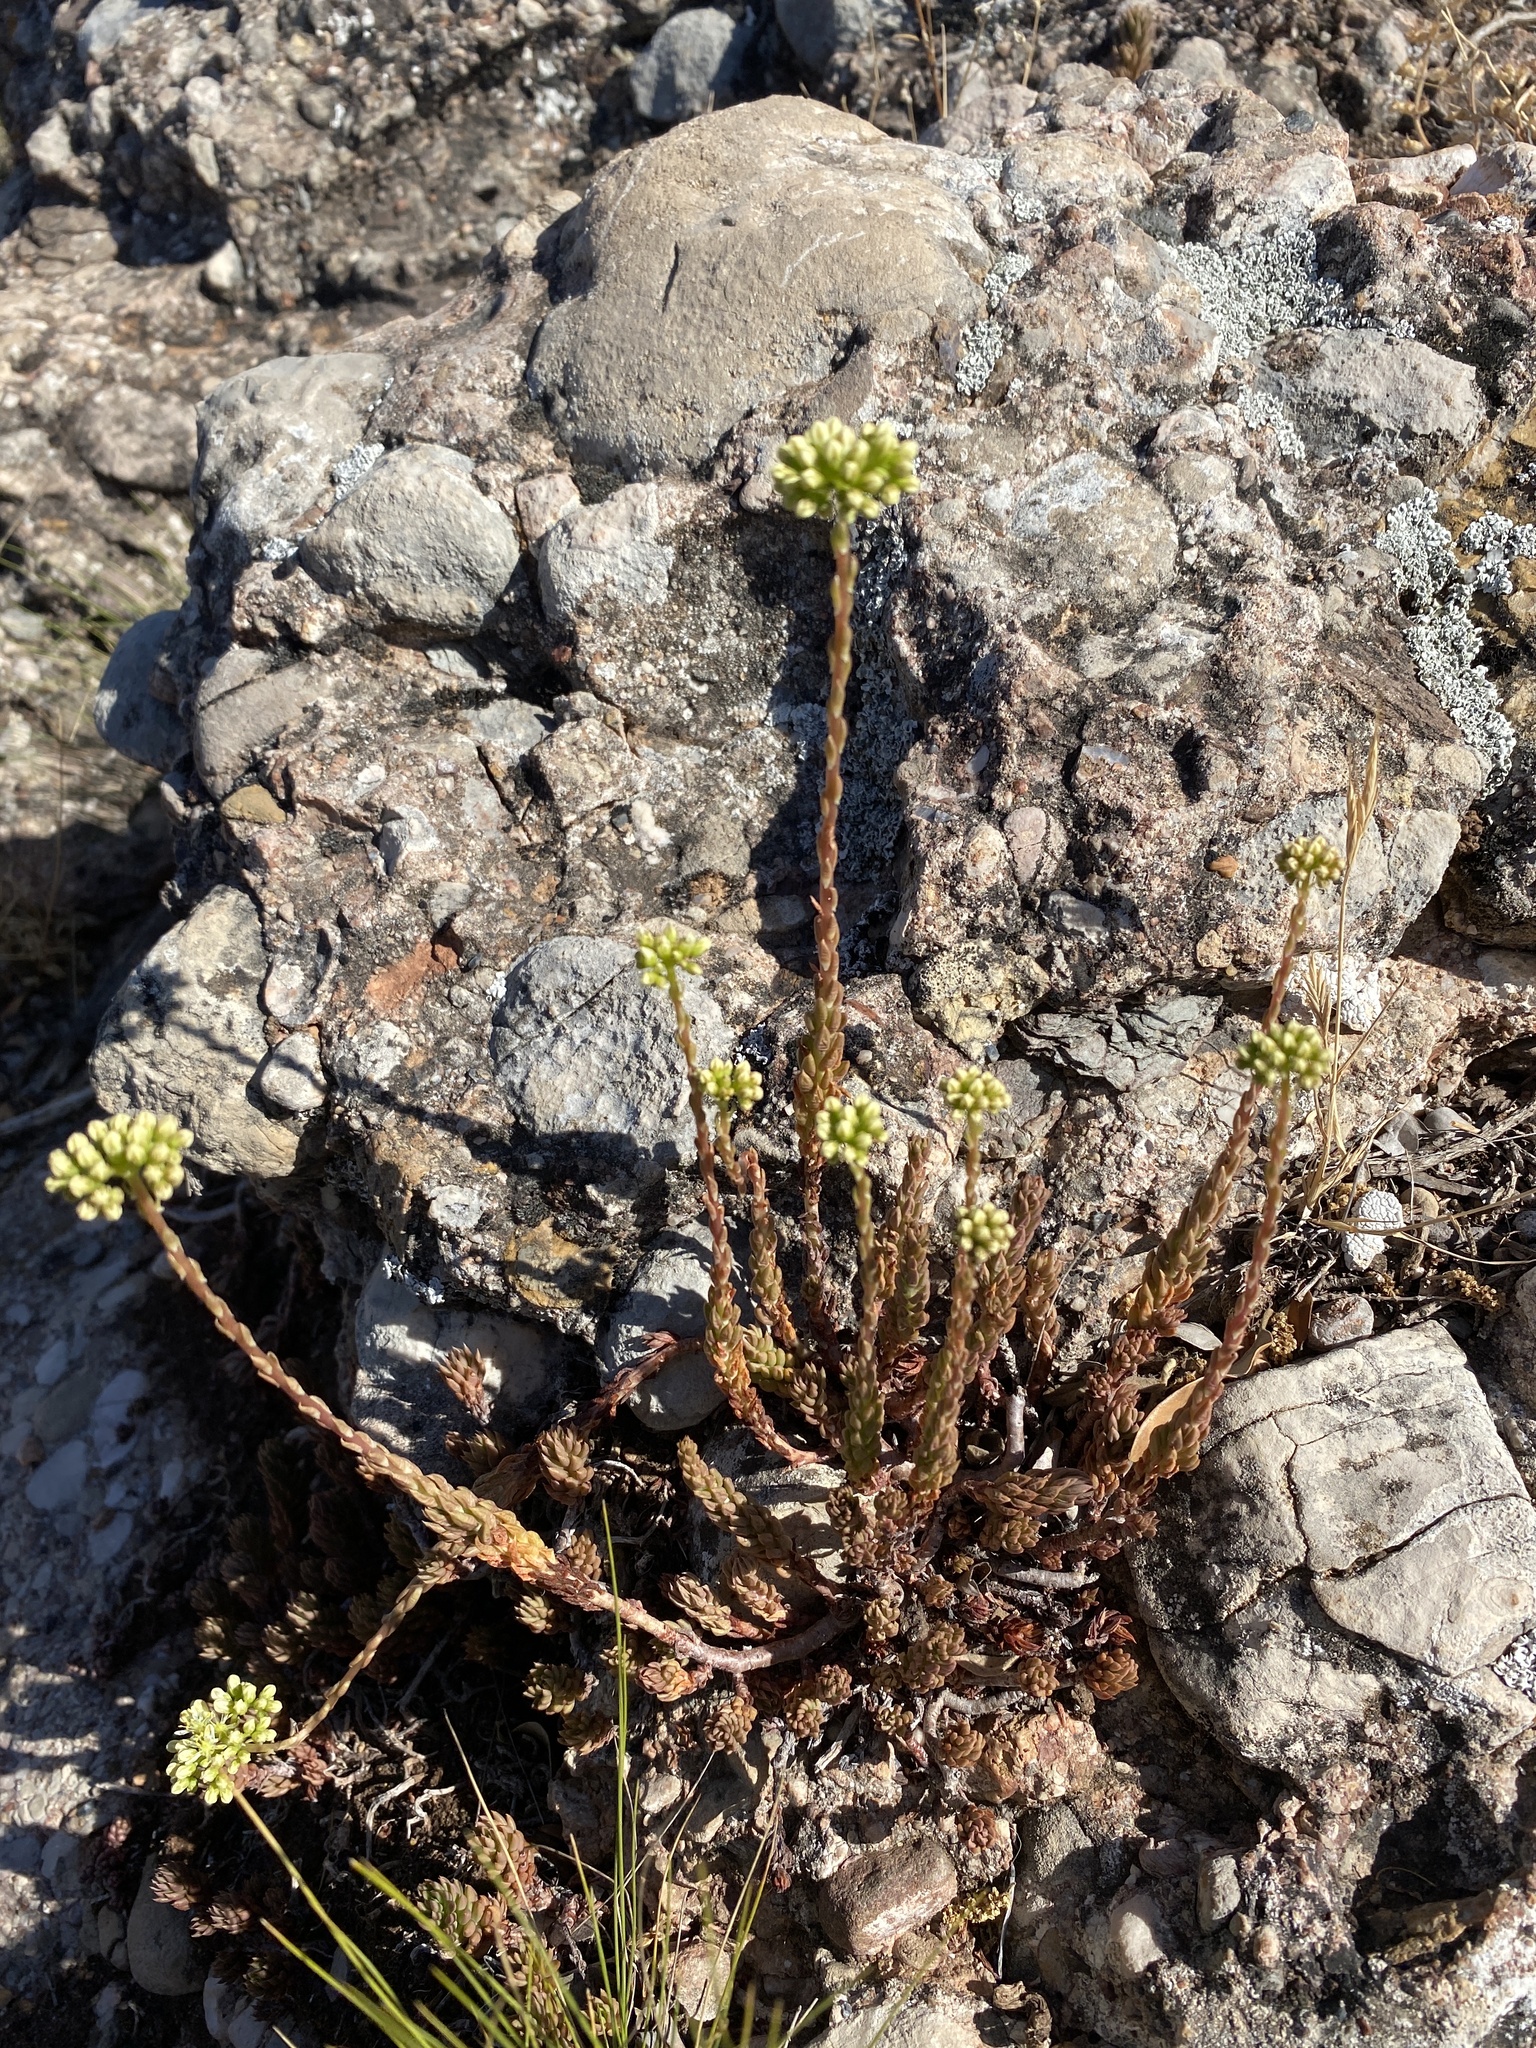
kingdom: Plantae
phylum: Tracheophyta
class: Magnoliopsida
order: Saxifragales
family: Crassulaceae
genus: Petrosedum
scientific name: Petrosedum sediforme
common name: Pale stonecrop
